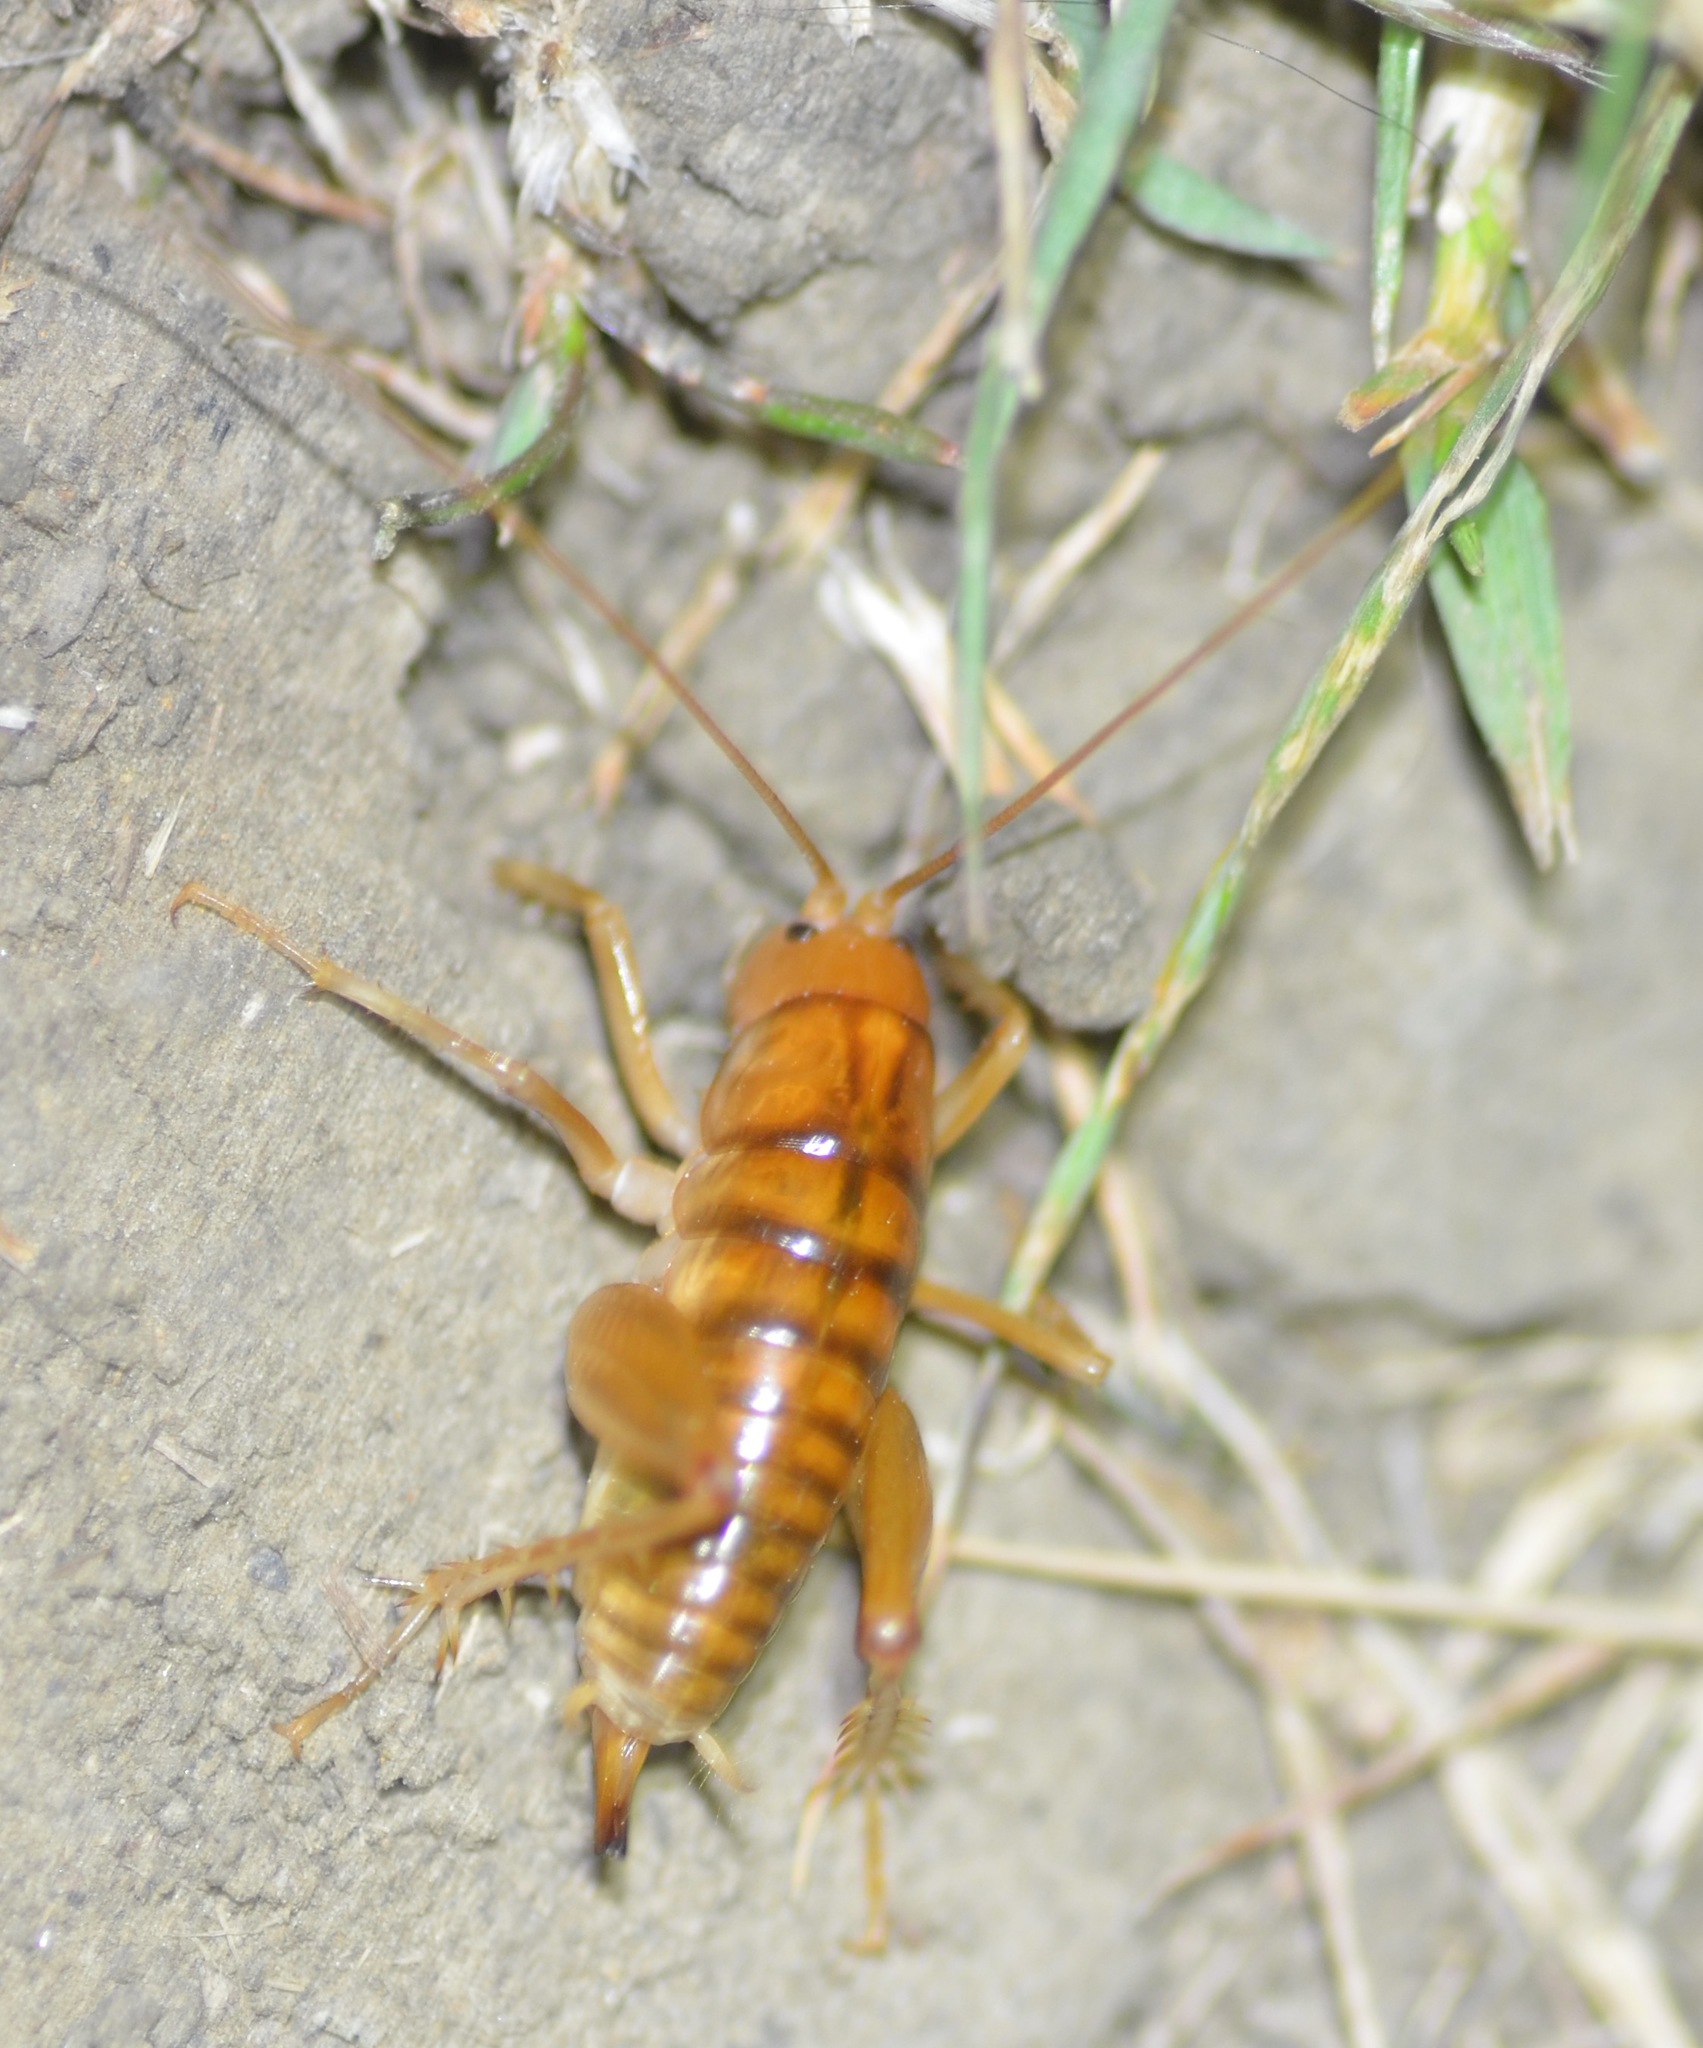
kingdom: Animalia
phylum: Arthropoda
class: Insecta
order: Orthoptera
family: Rhaphidophoridae
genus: Ceuthophilus
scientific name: Ceuthophilus californianus
